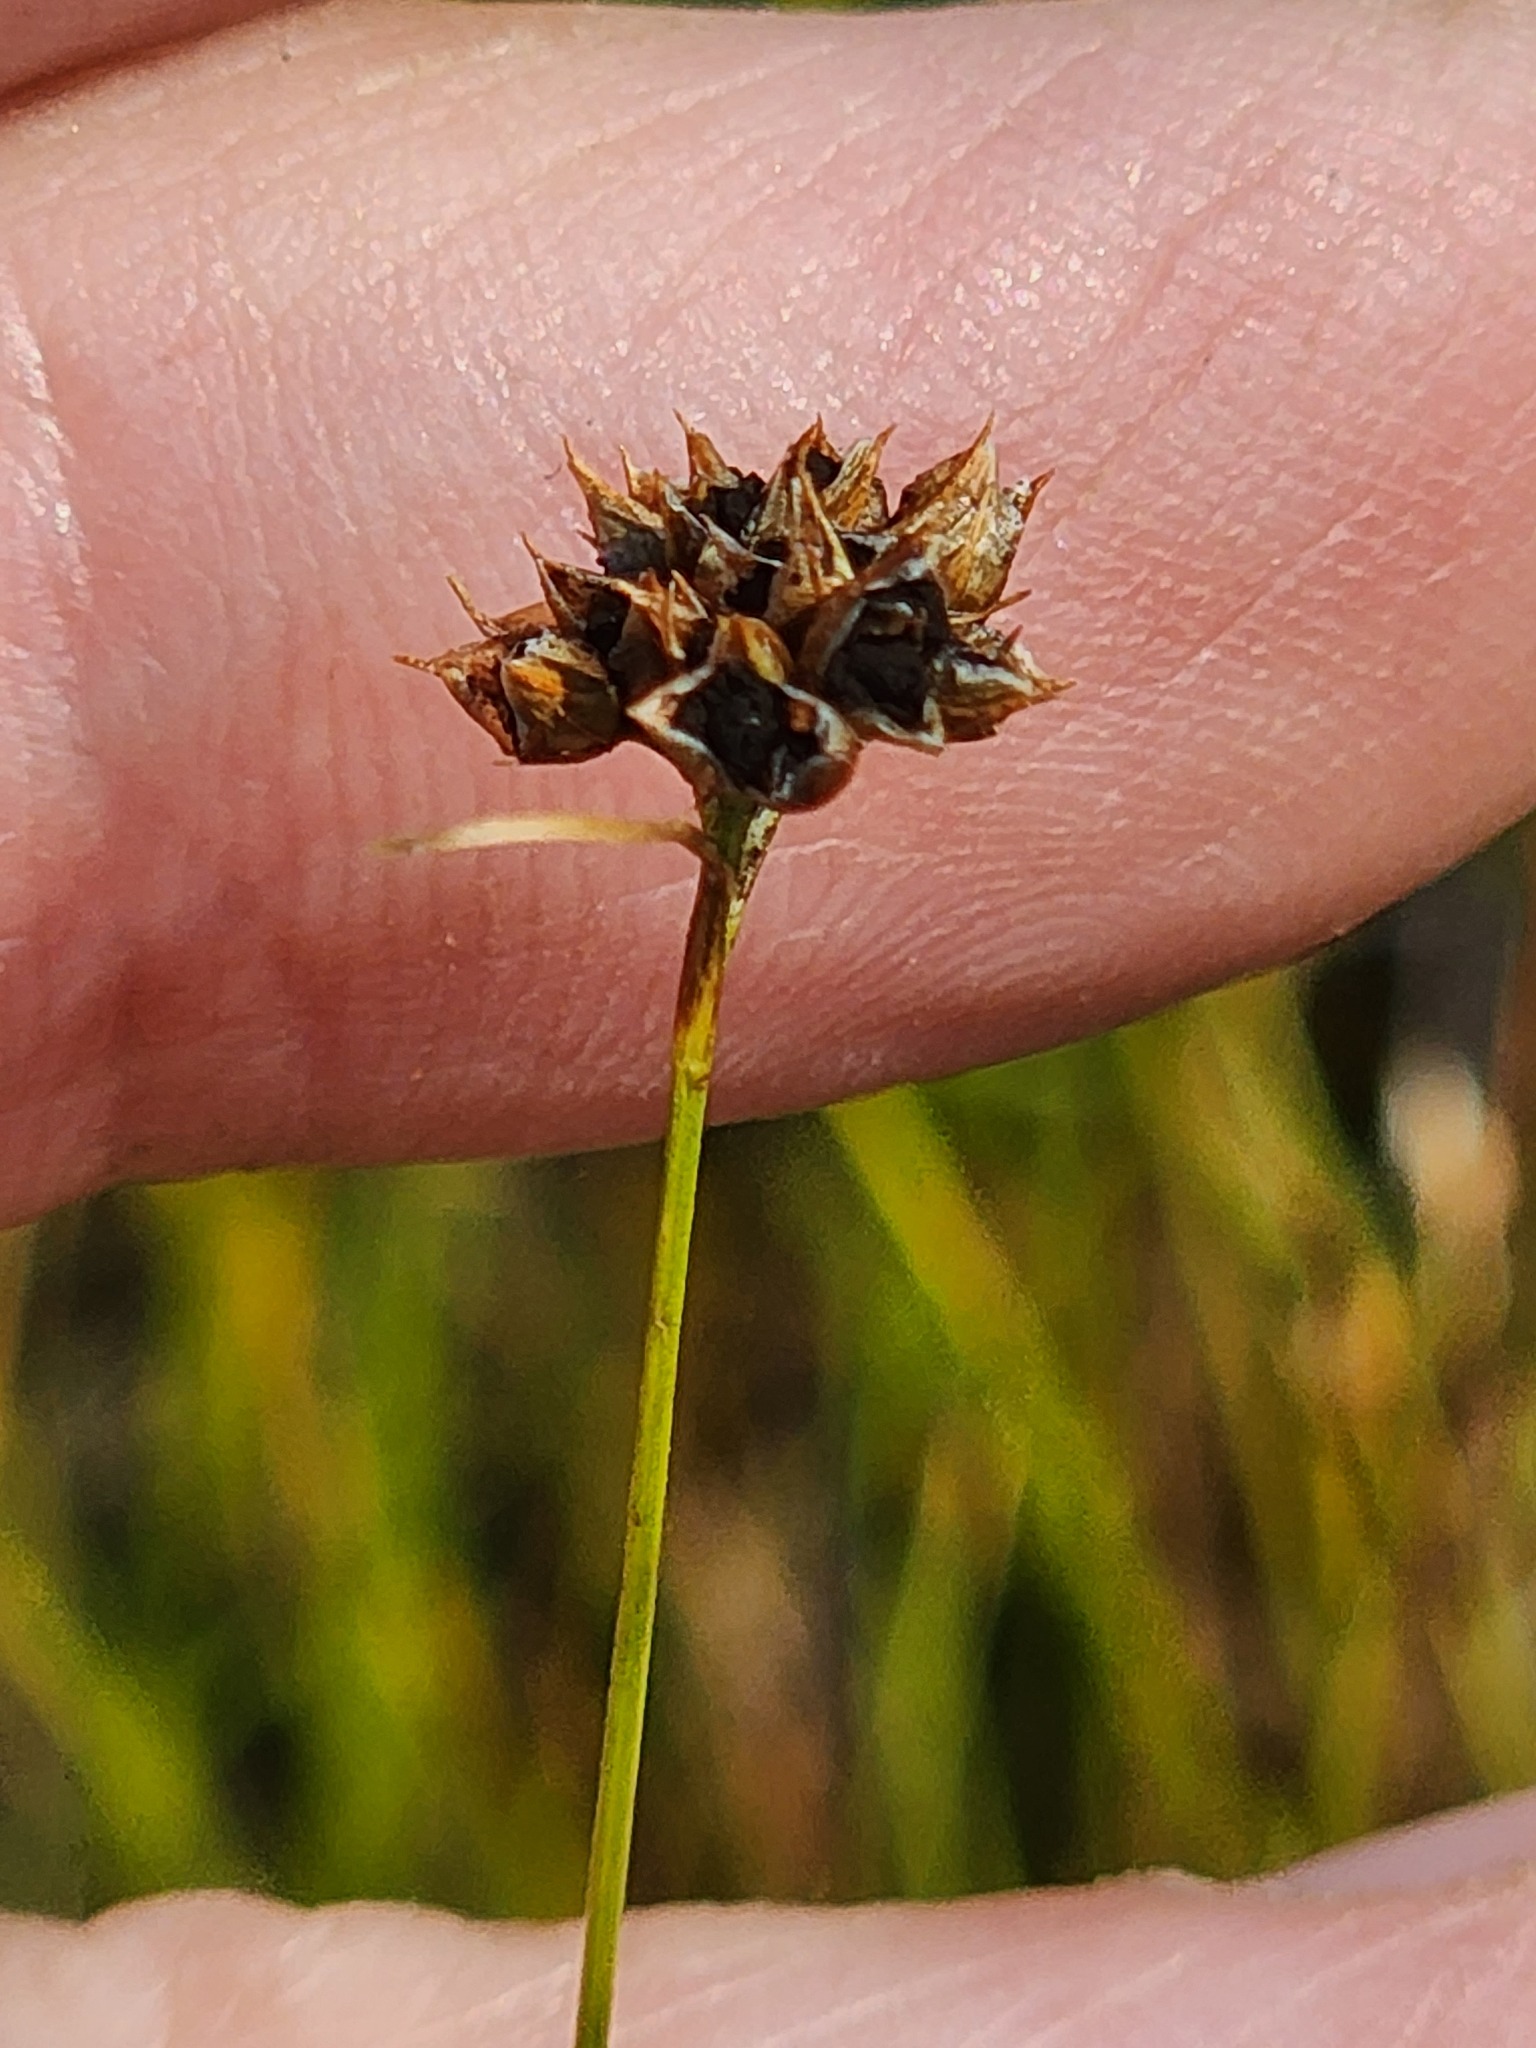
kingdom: Plantae
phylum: Tracheophyta
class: Liliopsida
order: Poales
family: Cyperaceae
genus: Rhynchospora
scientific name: Rhynchospora fusca
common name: Brown beak-sedge
